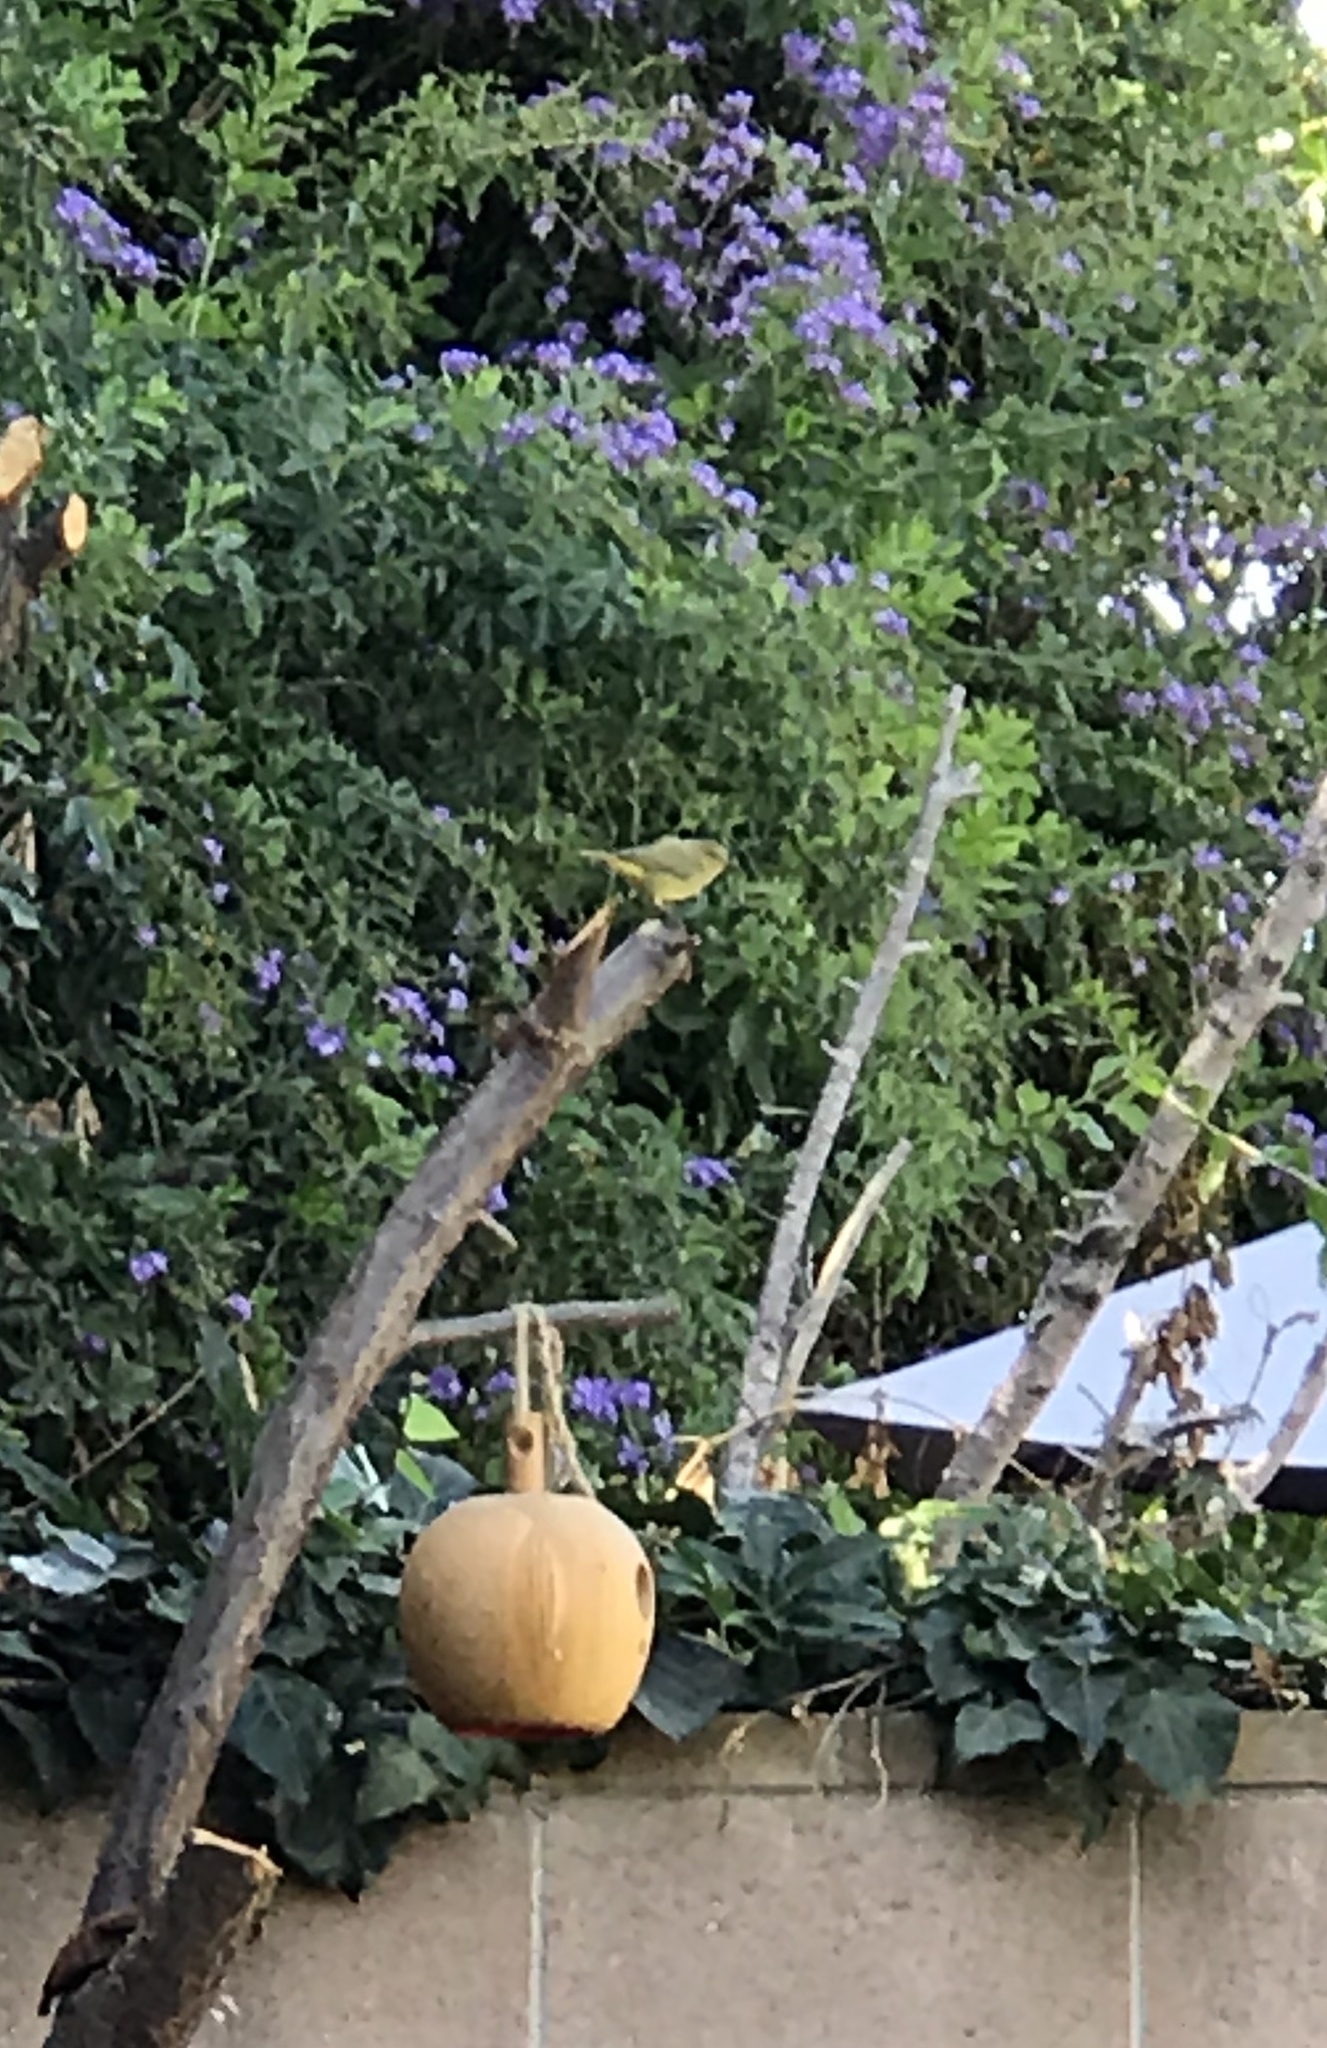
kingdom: Animalia
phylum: Chordata
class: Aves
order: Passeriformes
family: Parulidae
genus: Leiothlypis
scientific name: Leiothlypis celata
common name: Orange-crowned warbler
